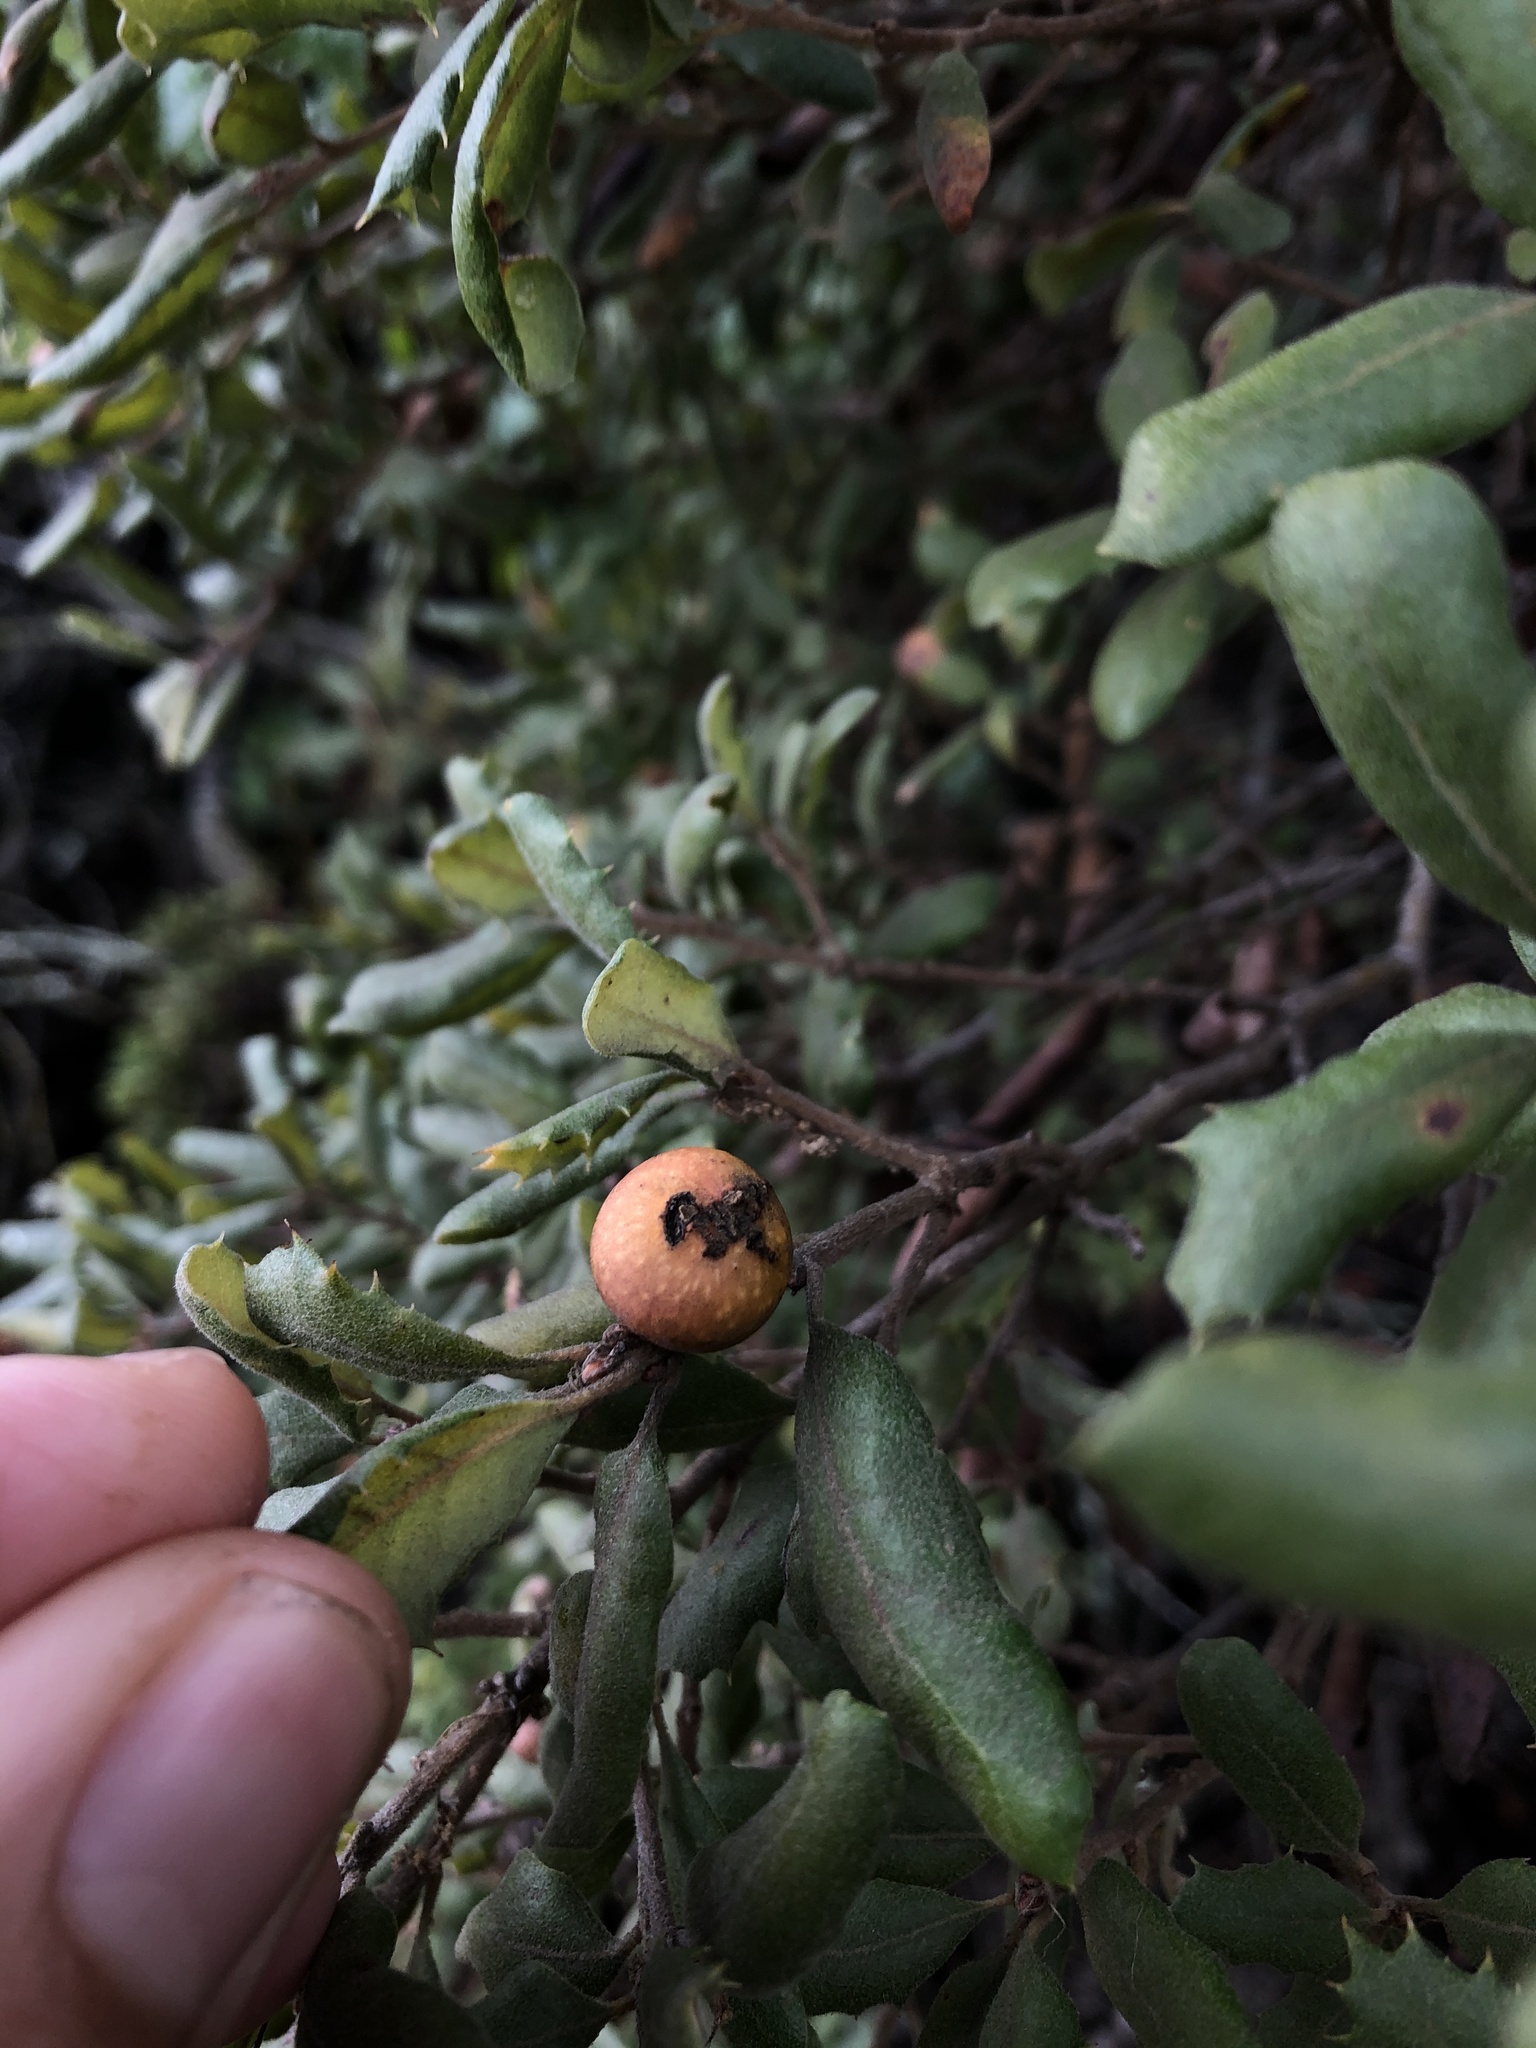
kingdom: Animalia
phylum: Arthropoda
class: Insecta
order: Hymenoptera
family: Cynipidae
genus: Burnettweldia
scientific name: Burnettweldia
